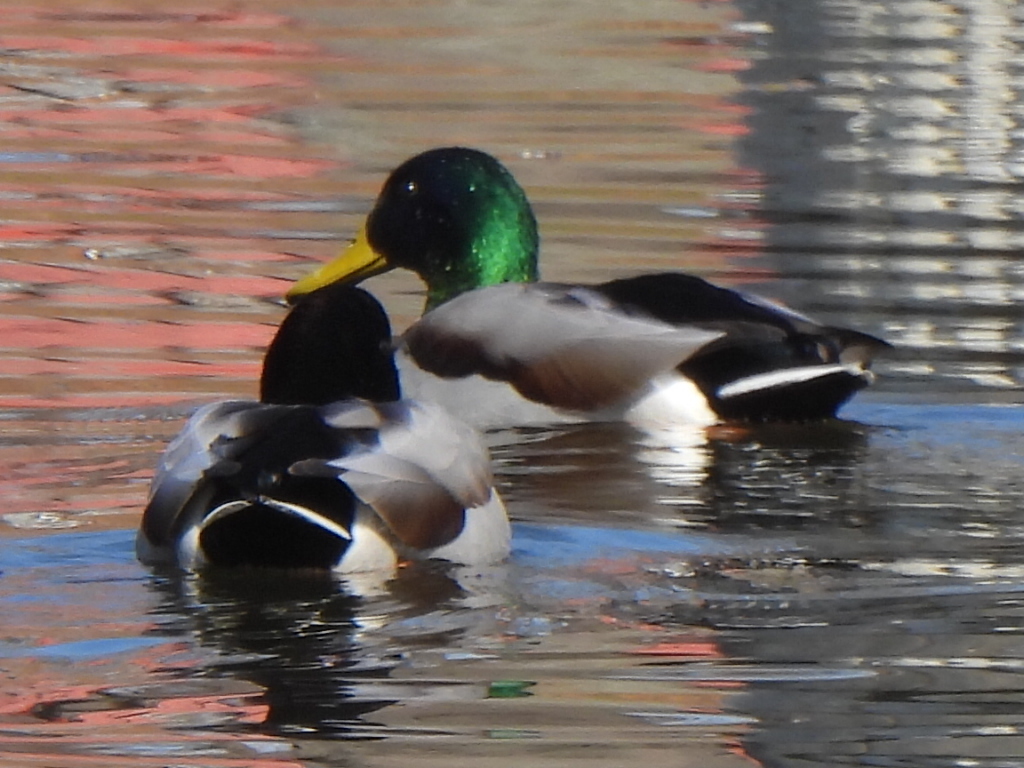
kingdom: Animalia
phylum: Chordata
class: Aves
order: Anseriformes
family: Anatidae
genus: Anas
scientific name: Anas platyrhynchos
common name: Mallard
